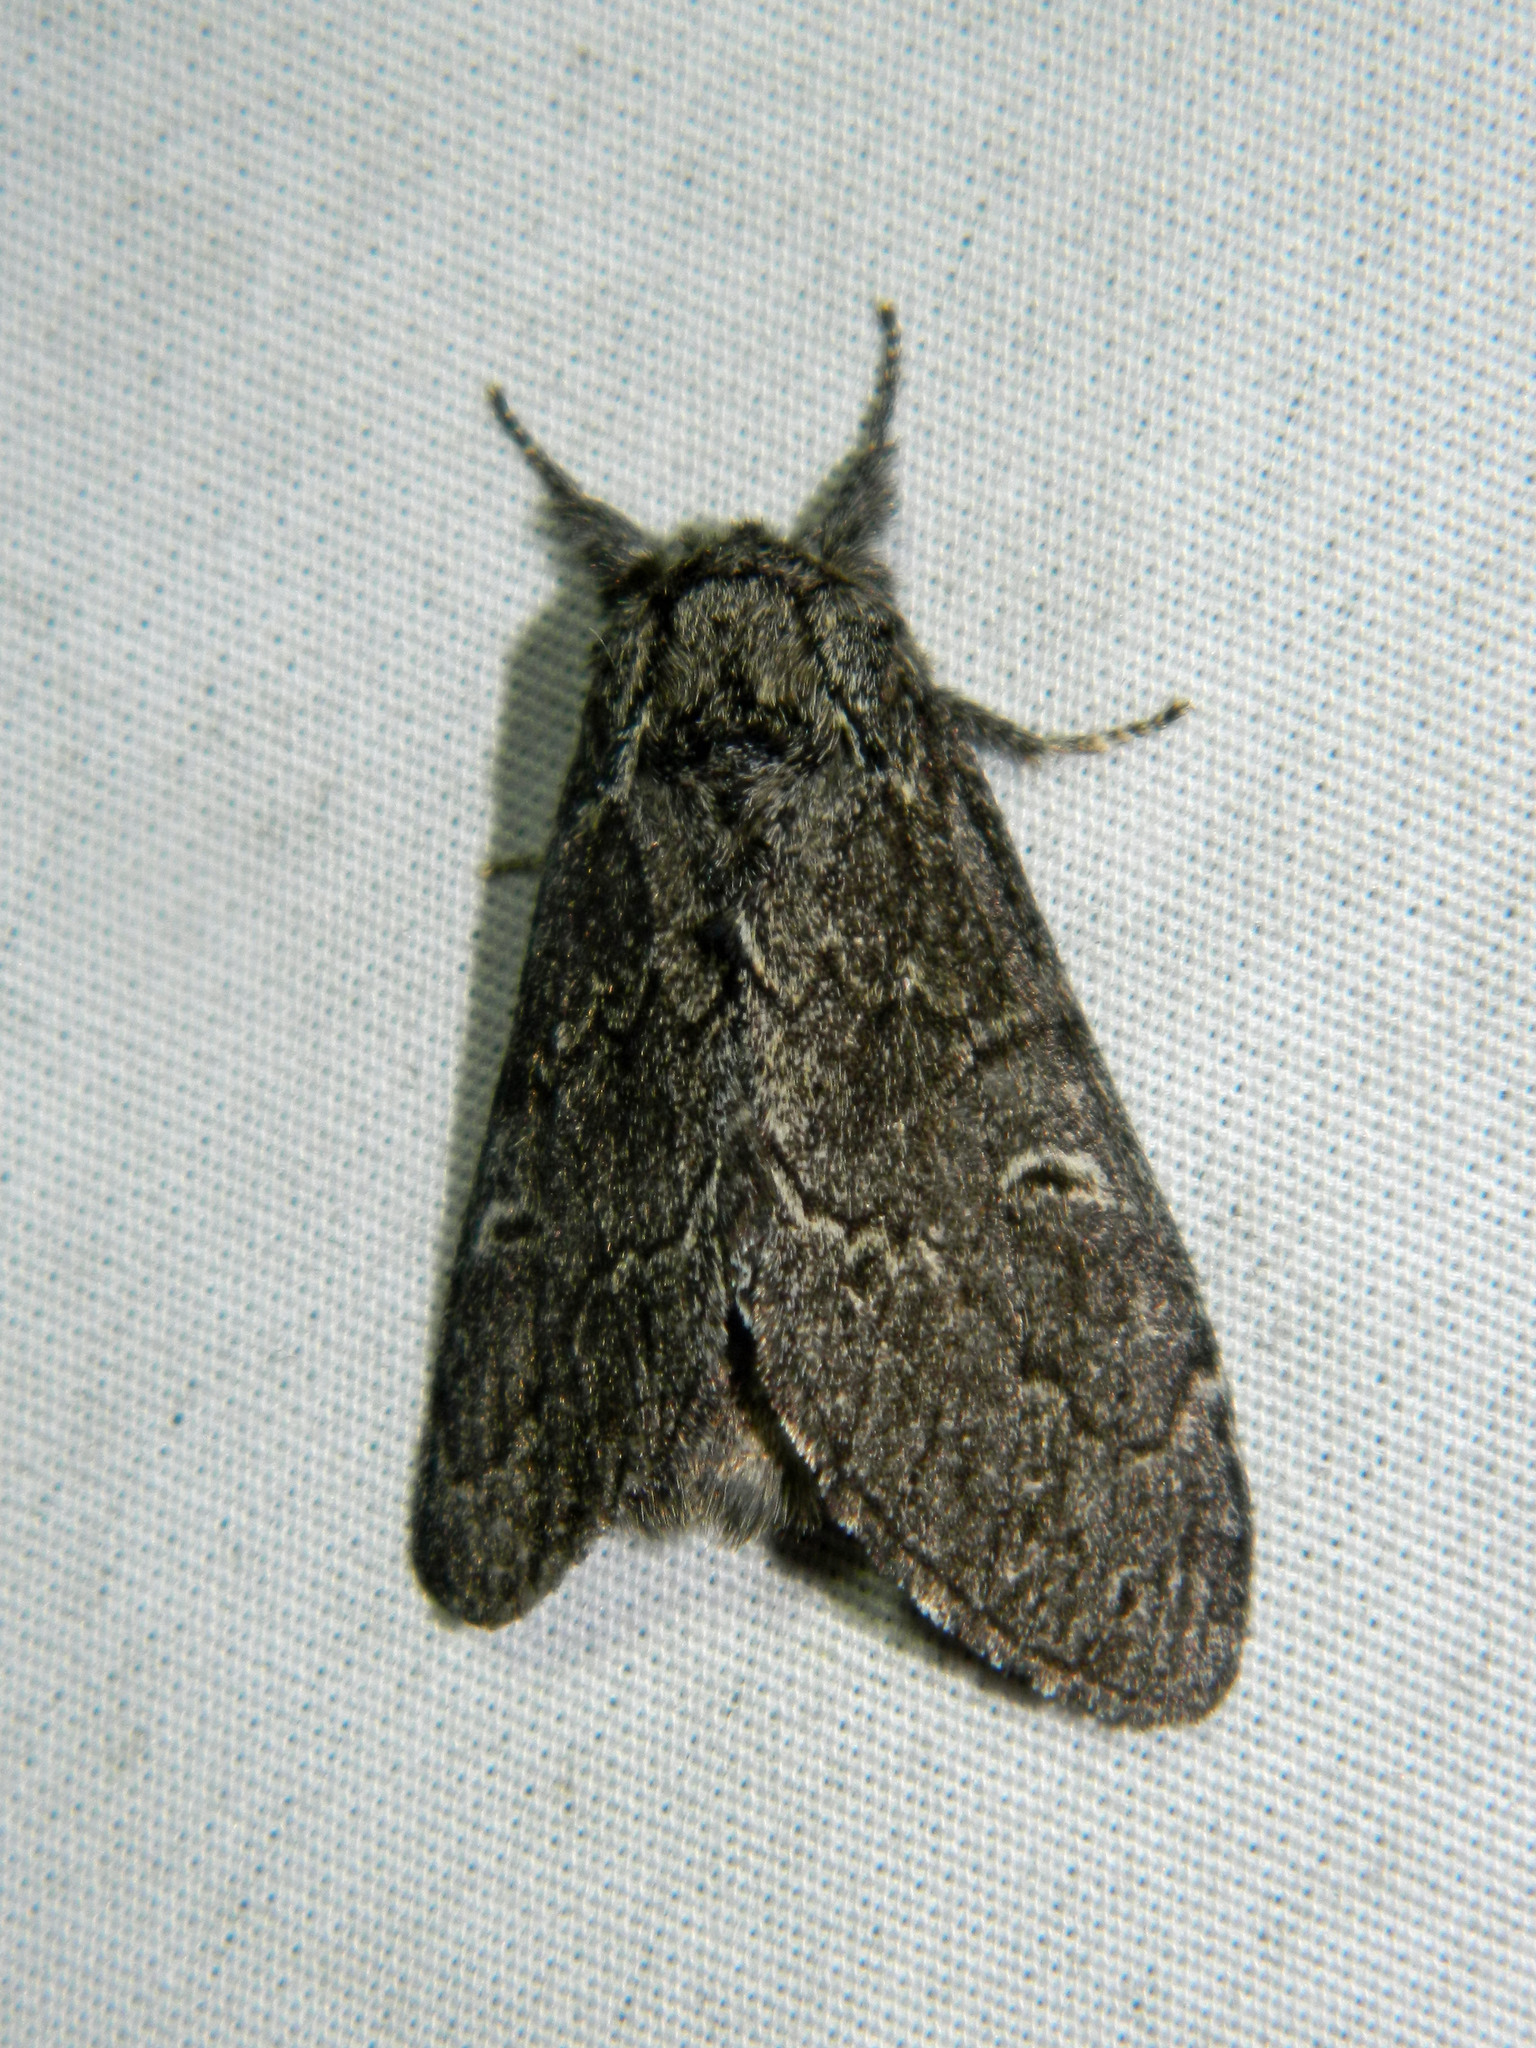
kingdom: Animalia
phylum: Arthropoda
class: Insecta
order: Lepidoptera
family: Notodontidae
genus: Notodonta
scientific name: Notodonta torva
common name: Large dark prominent
